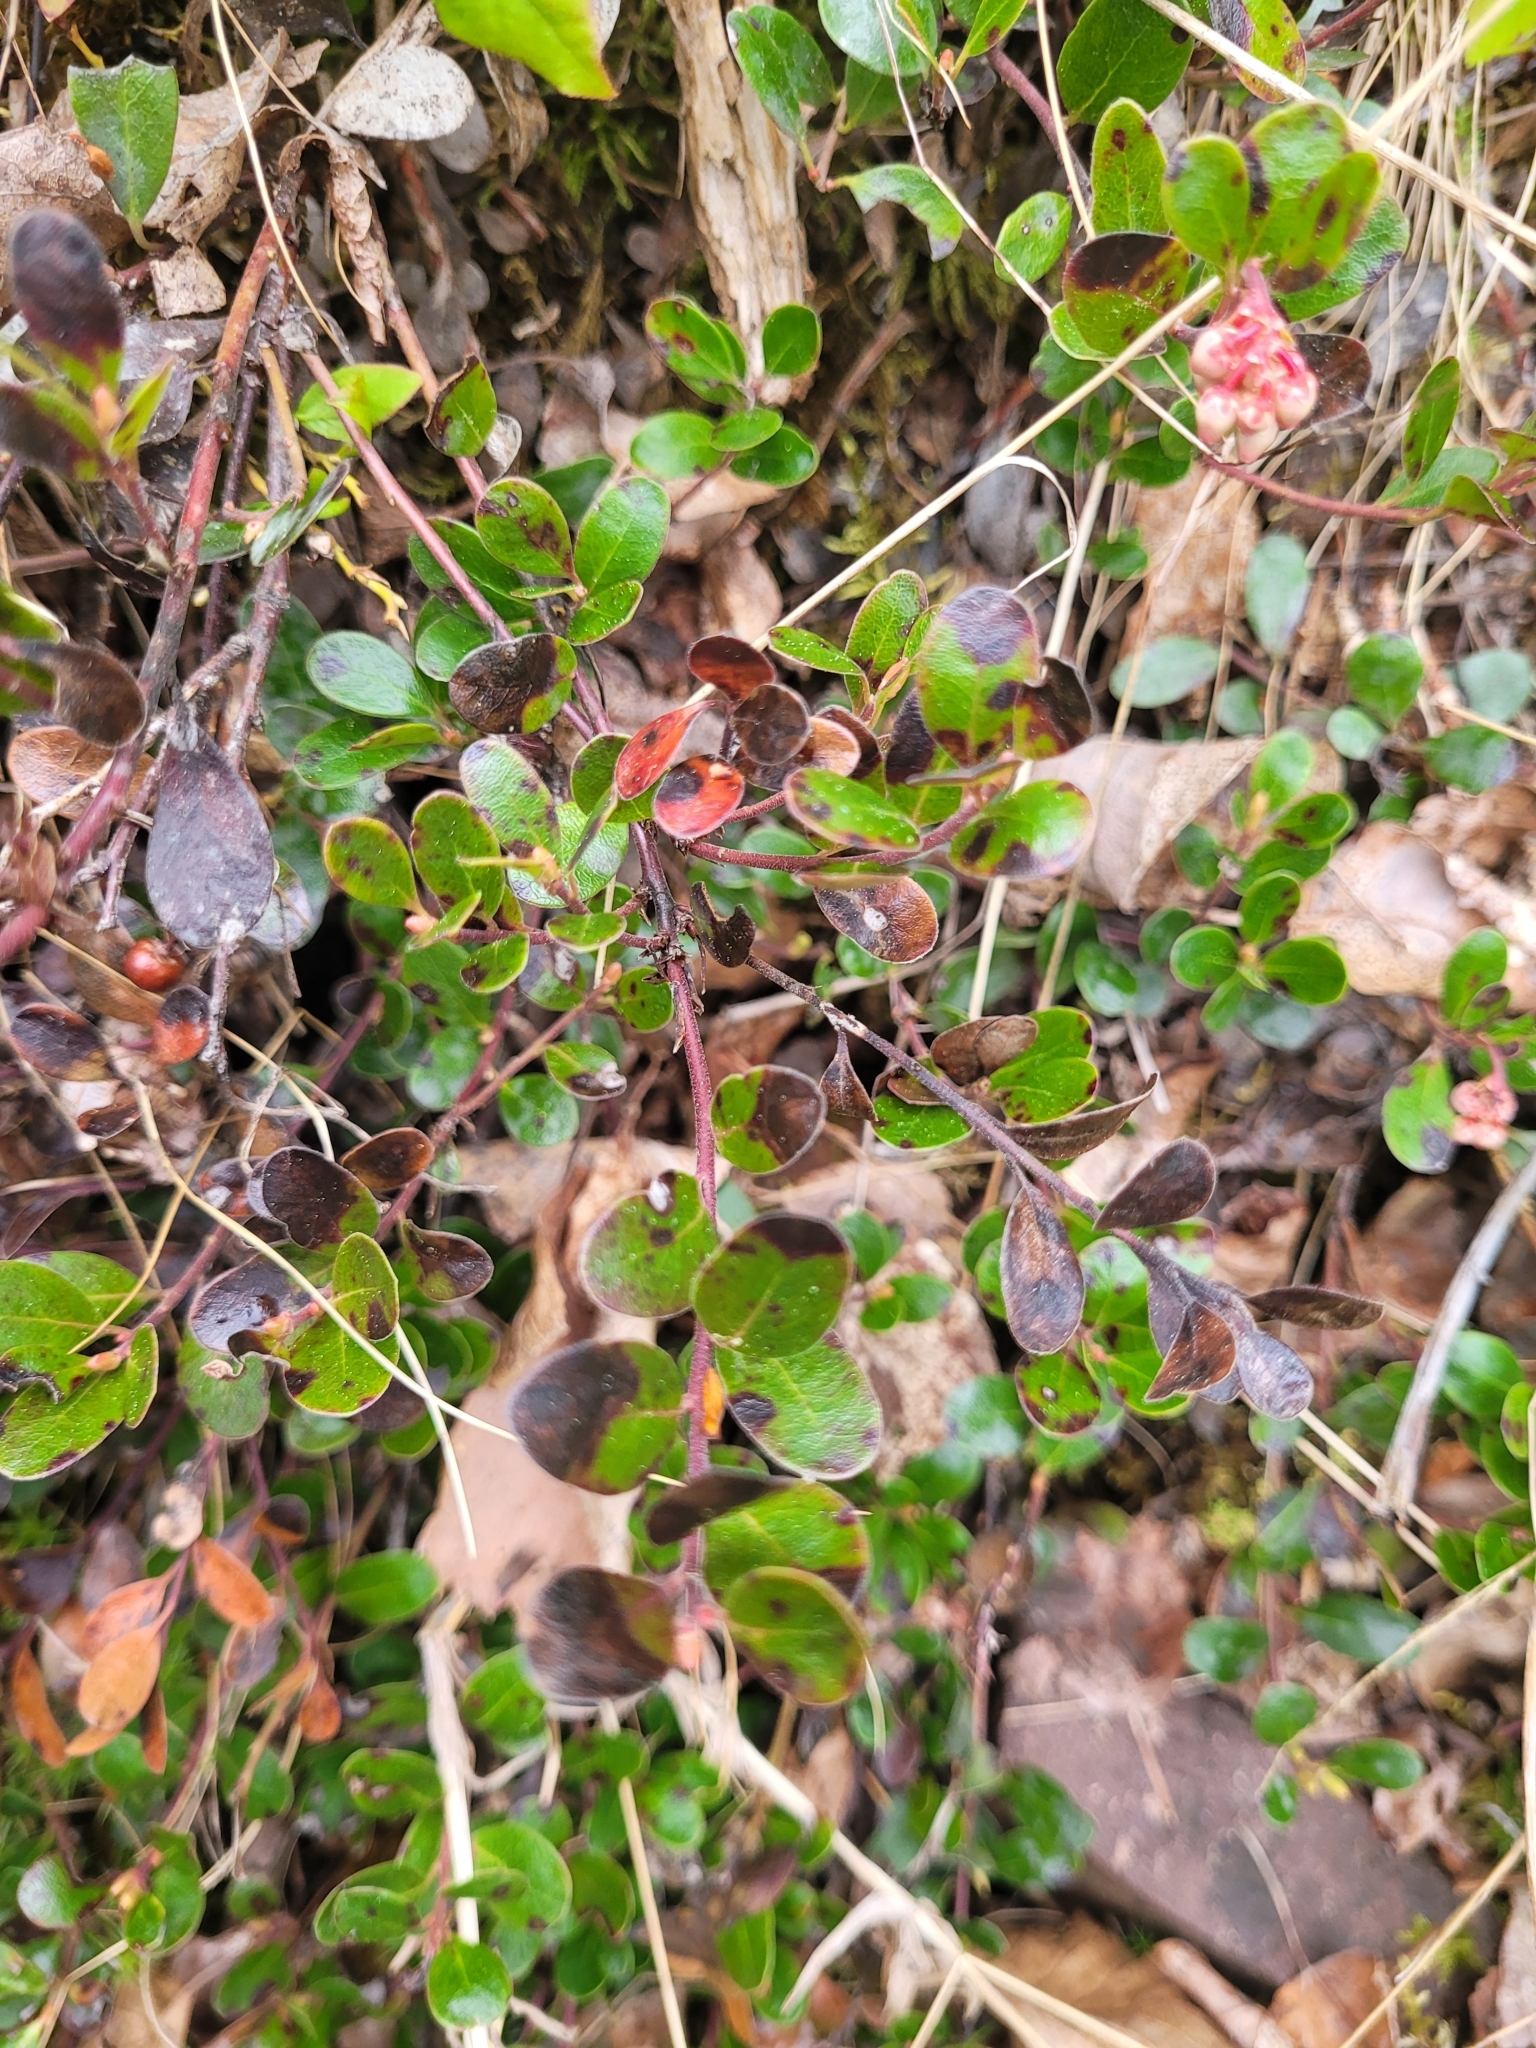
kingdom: Plantae
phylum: Tracheophyta
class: Magnoliopsida
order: Ericales
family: Ericaceae
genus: Arctostaphylos
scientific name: Arctostaphylos uva-ursi
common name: Bearberry
